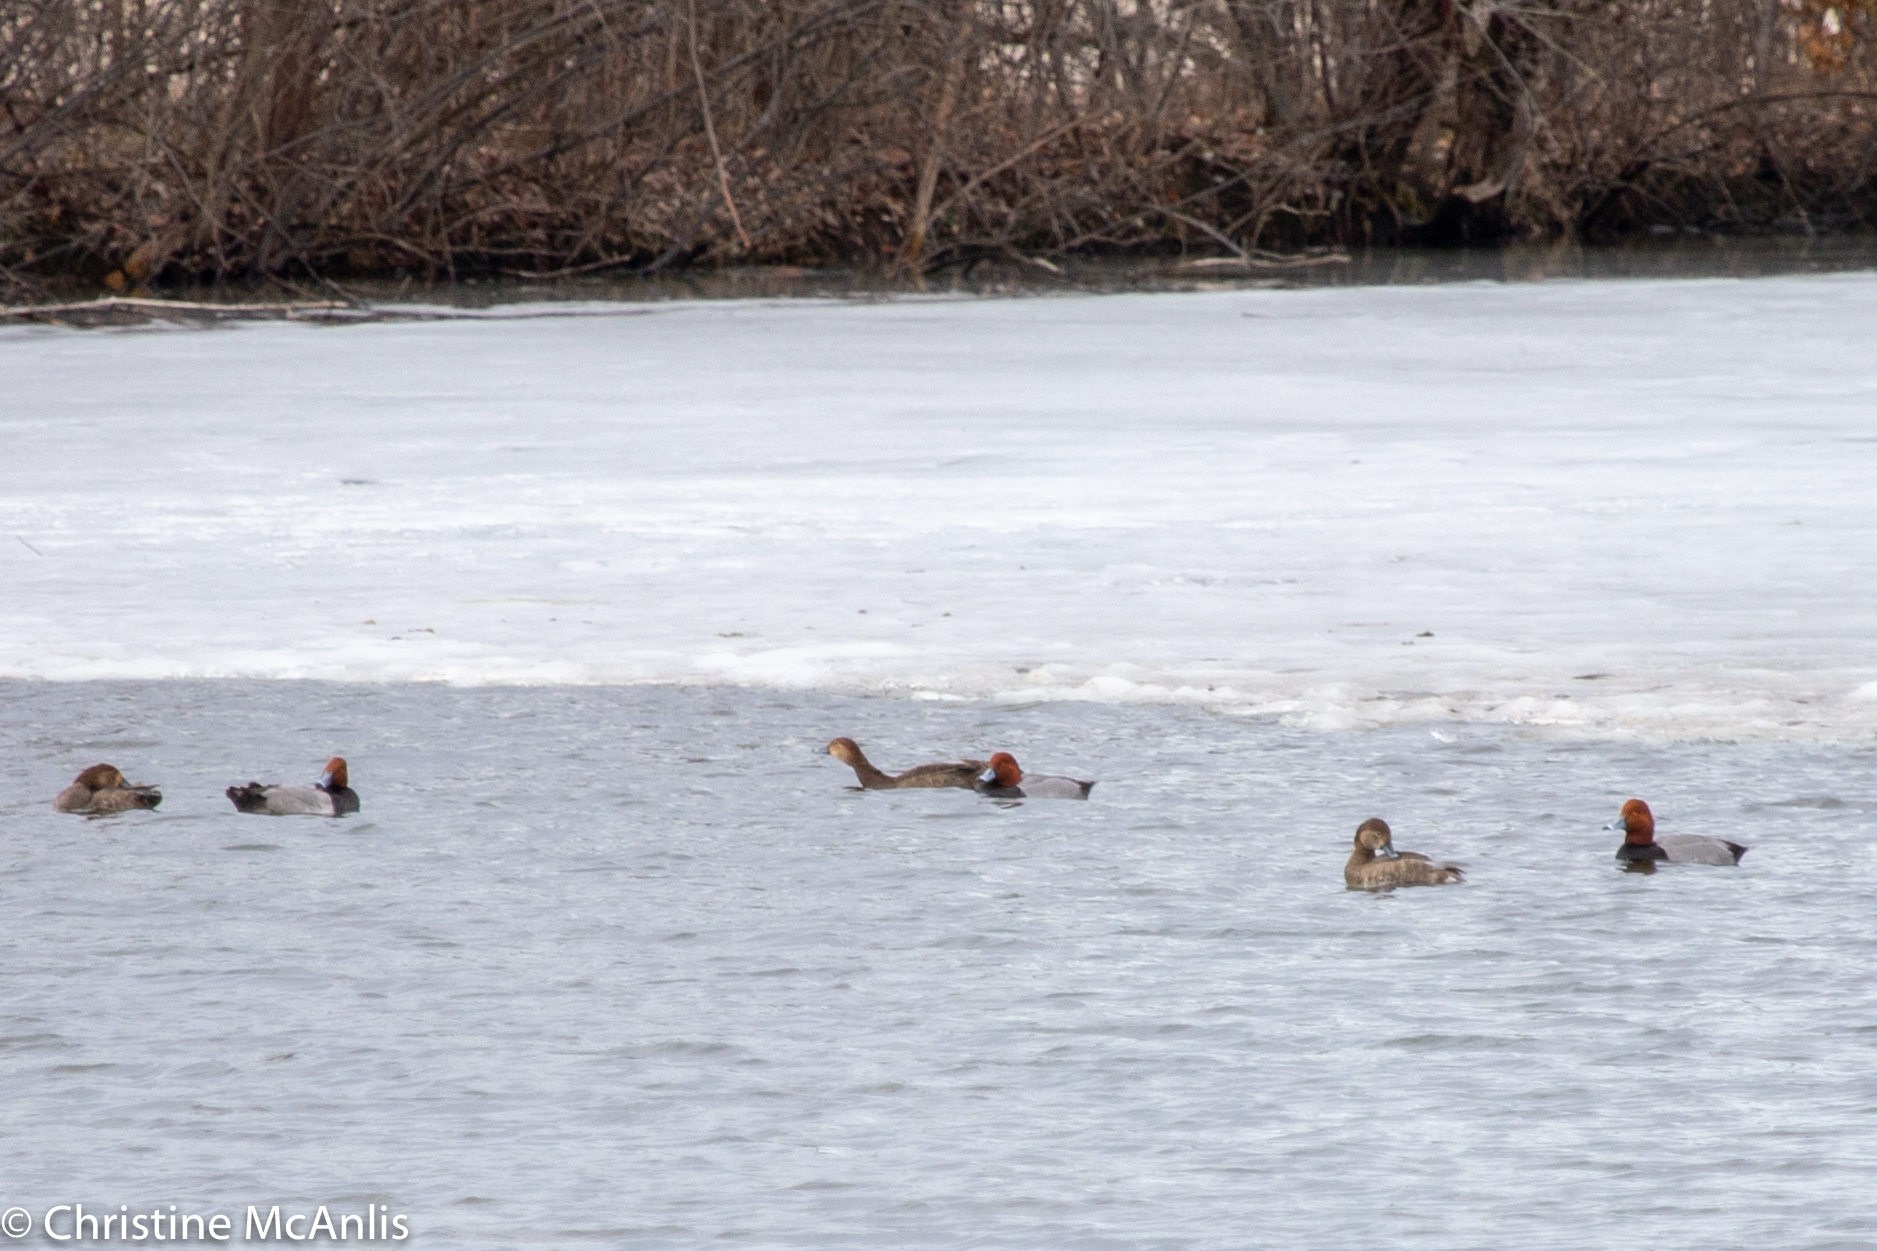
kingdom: Animalia
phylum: Chordata
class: Aves
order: Anseriformes
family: Anatidae
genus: Aythya
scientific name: Aythya americana
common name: Redhead
